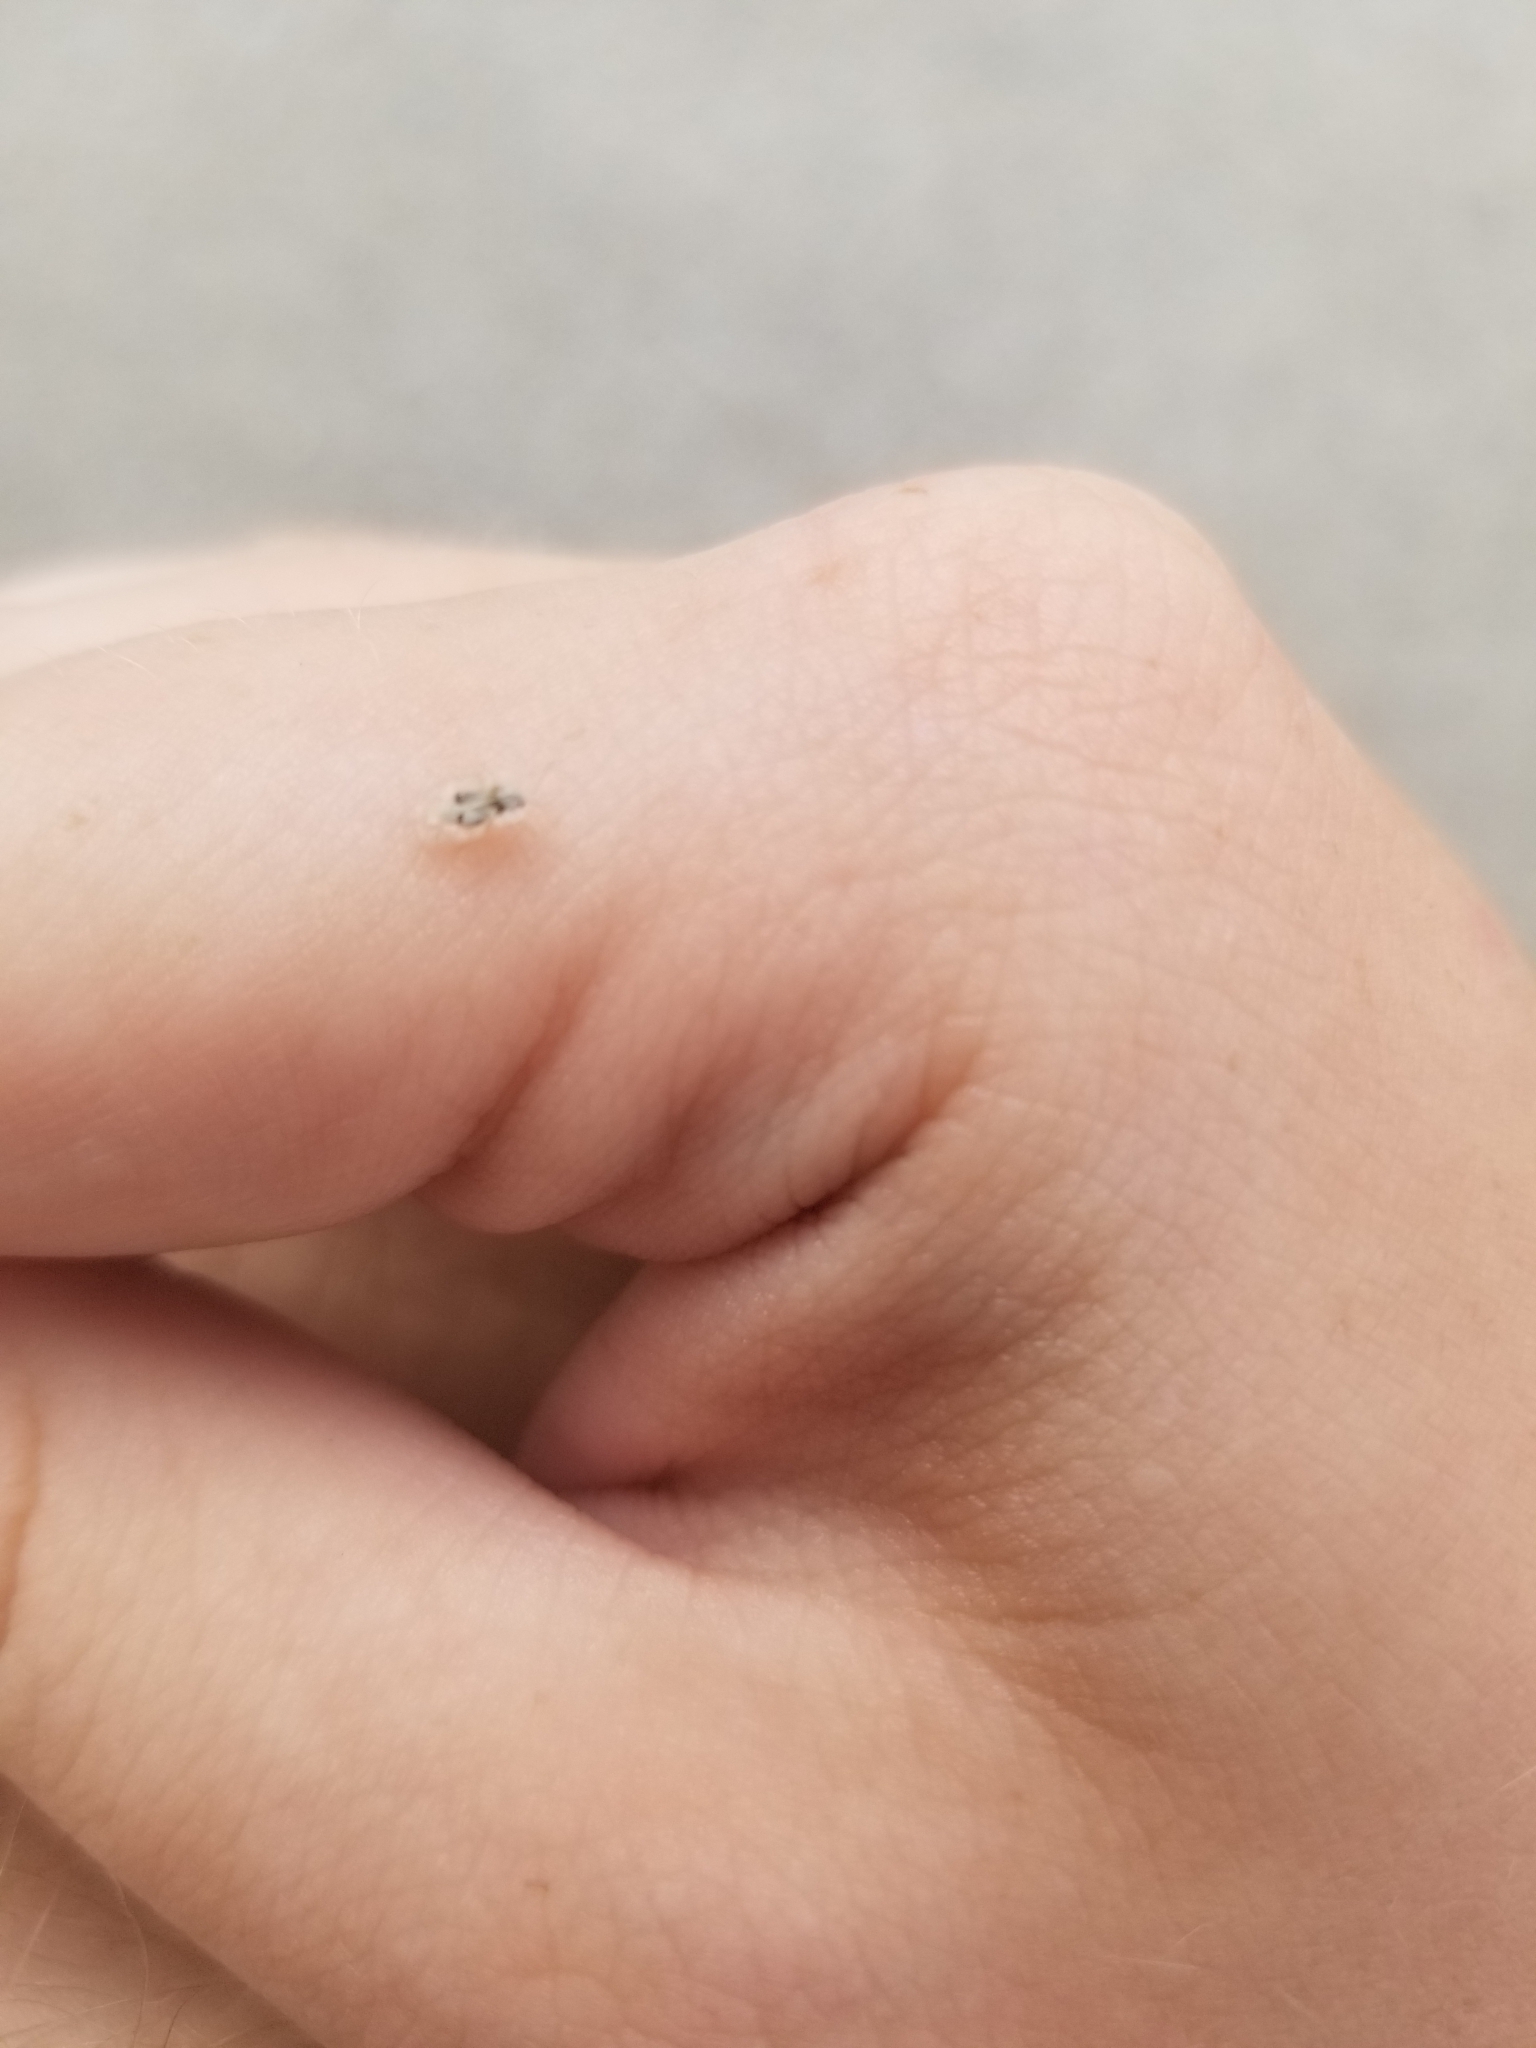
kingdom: Animalia
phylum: Arthropoda
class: Insecta
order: Hemiptera
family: Tingidae
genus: Corythucha
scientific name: Corythucha ciliata
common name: Sycamore lace bug
